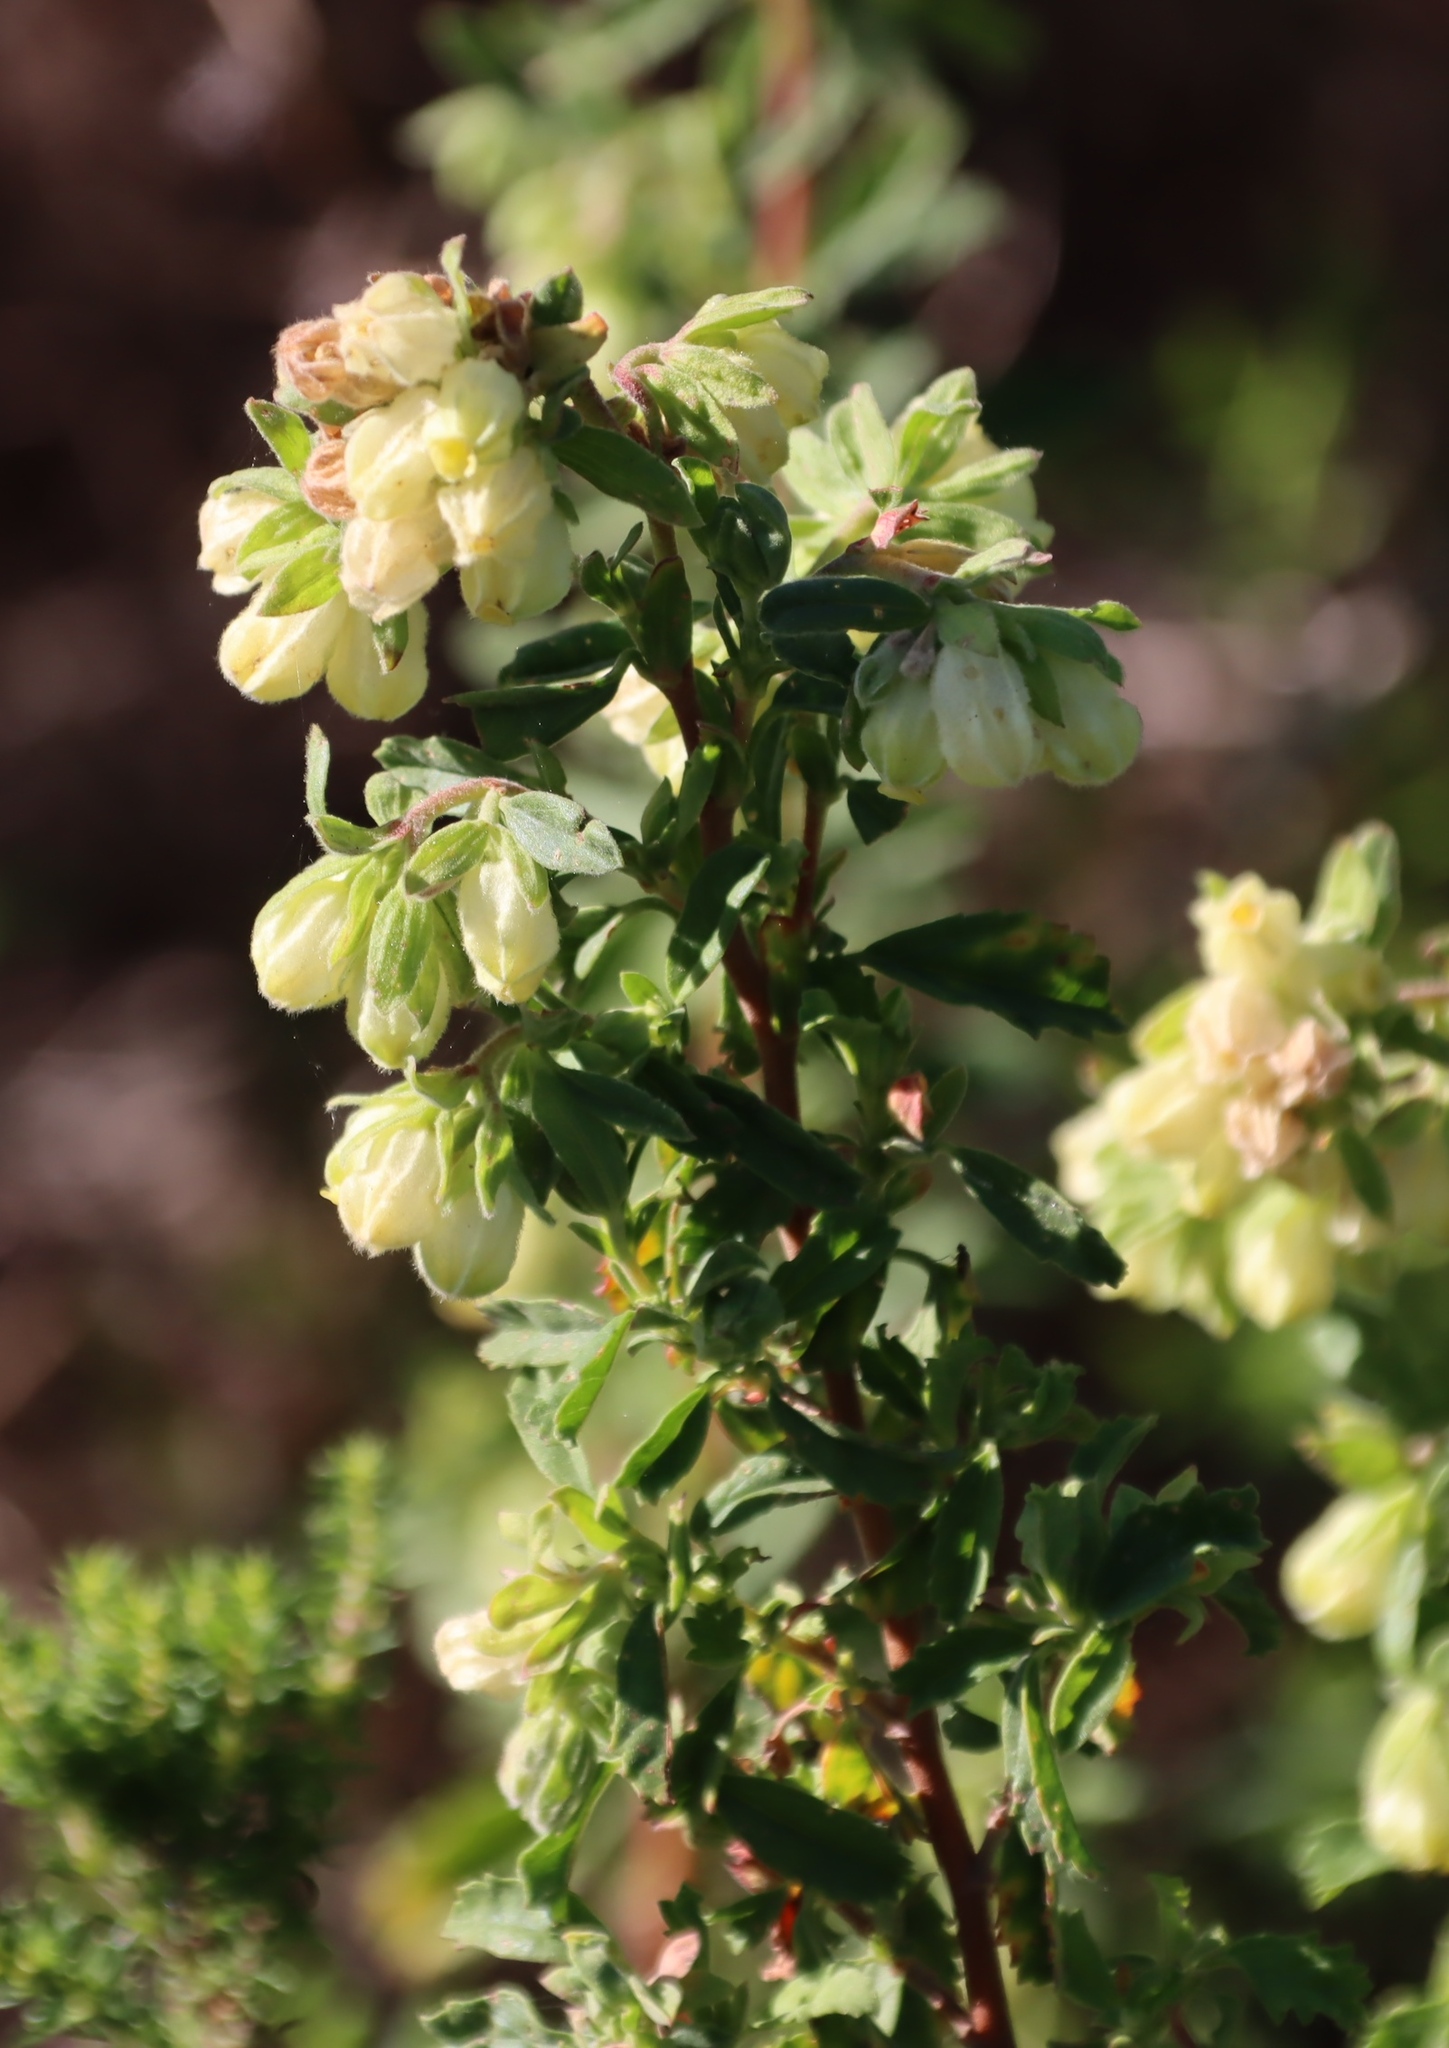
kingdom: Plantae
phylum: Tracheophyta
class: Magnoliopsida
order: Malvales
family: Malvaceae
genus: Hermannia
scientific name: Hermannia hyssopifolia
